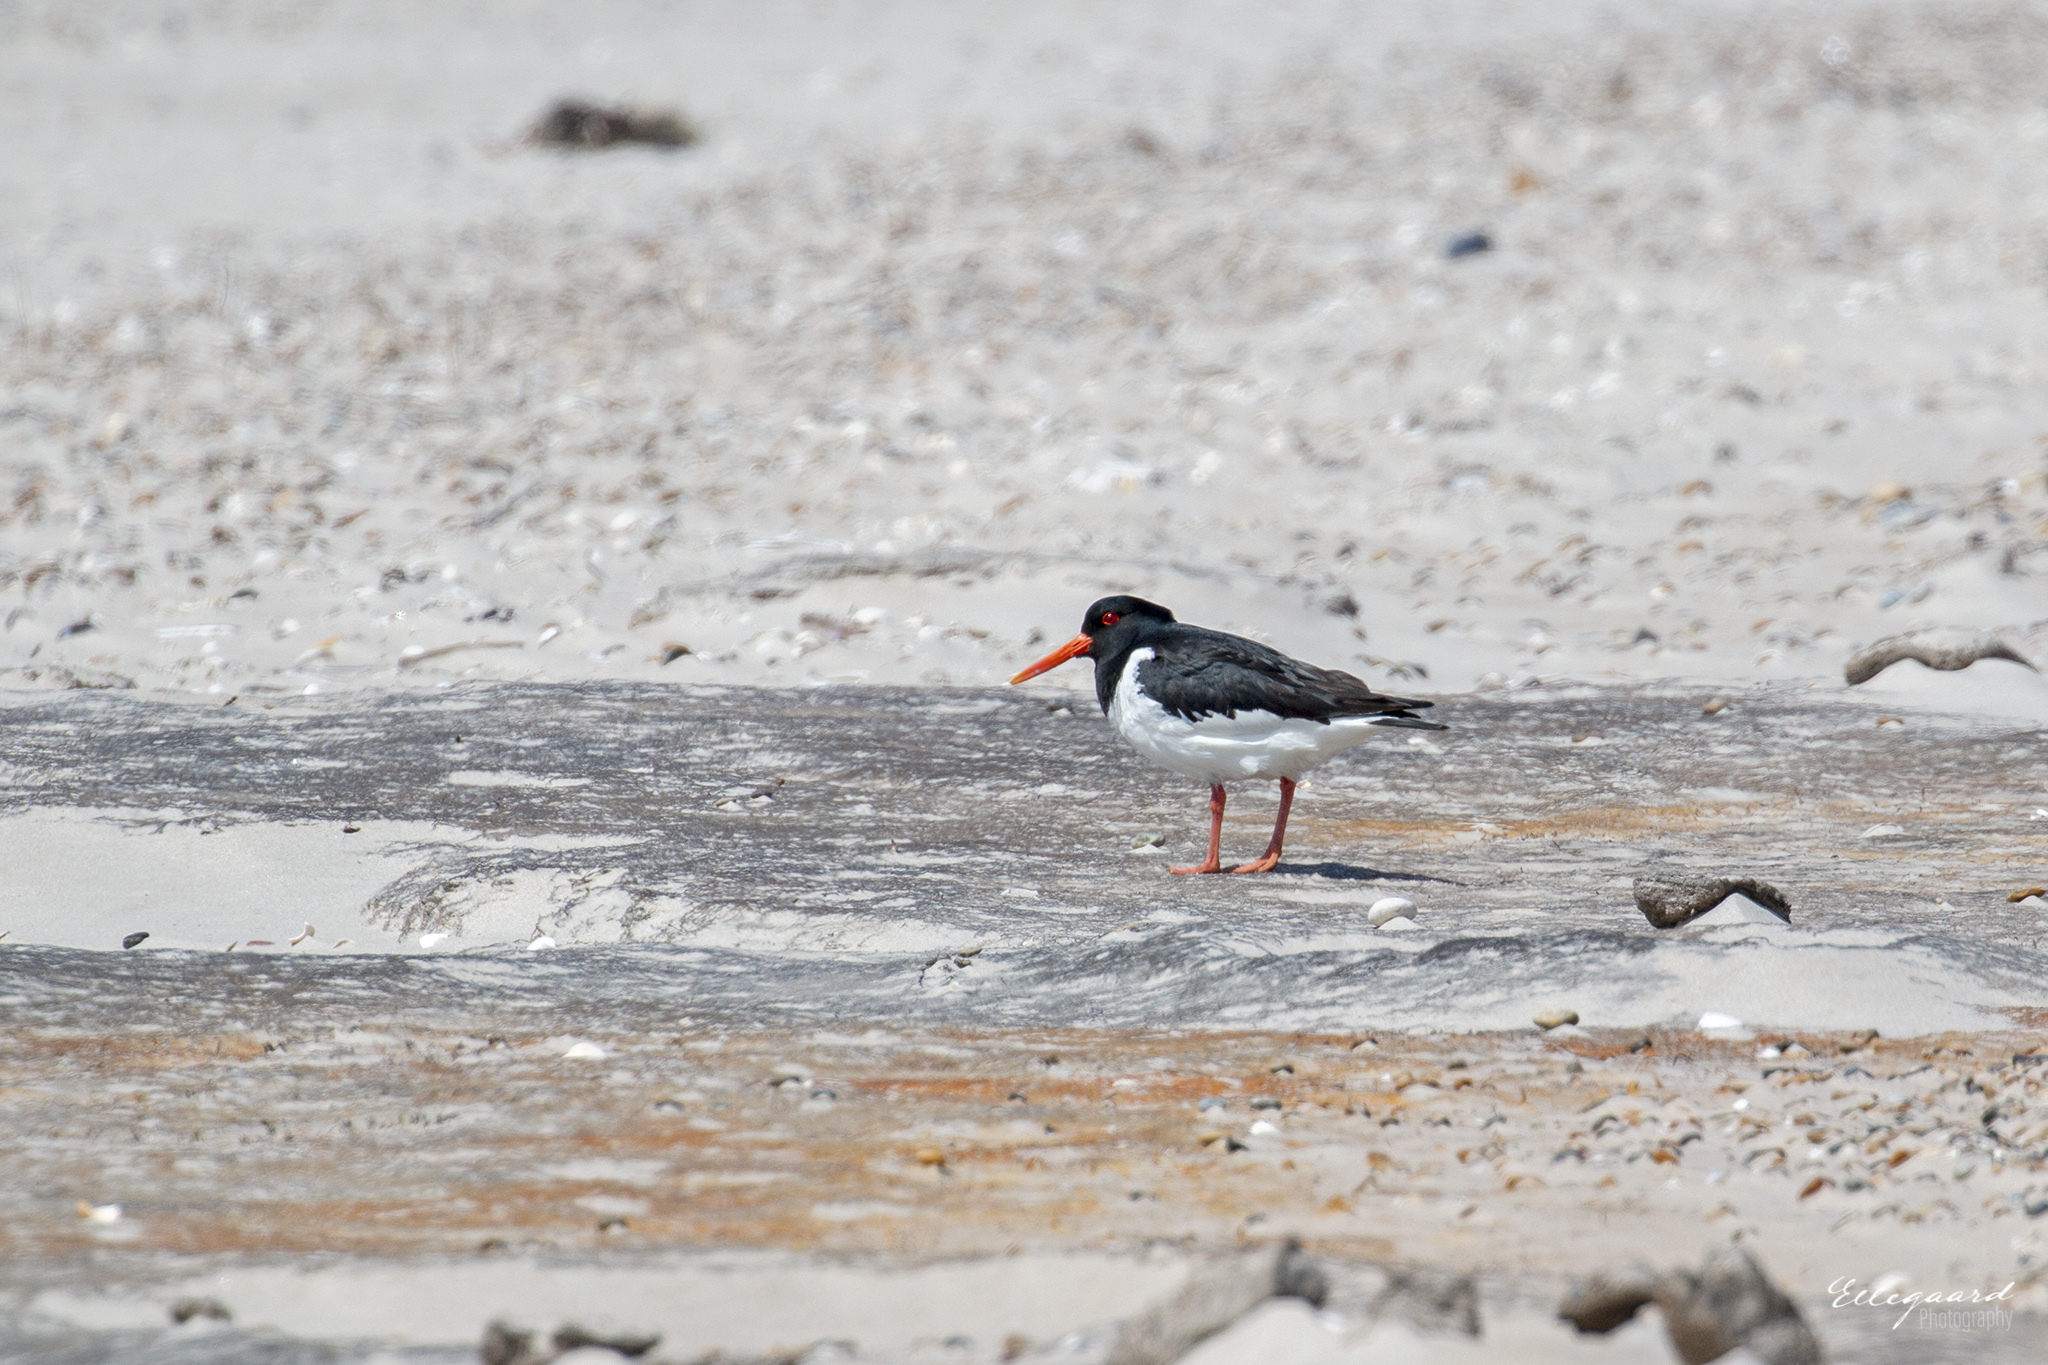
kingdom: Animalia
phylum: Chordata
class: Aves
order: Charadriiformes
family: Haematopodidae
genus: Haematopus
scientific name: Haematopus ostralegus
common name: Eurasian oystercatcher
